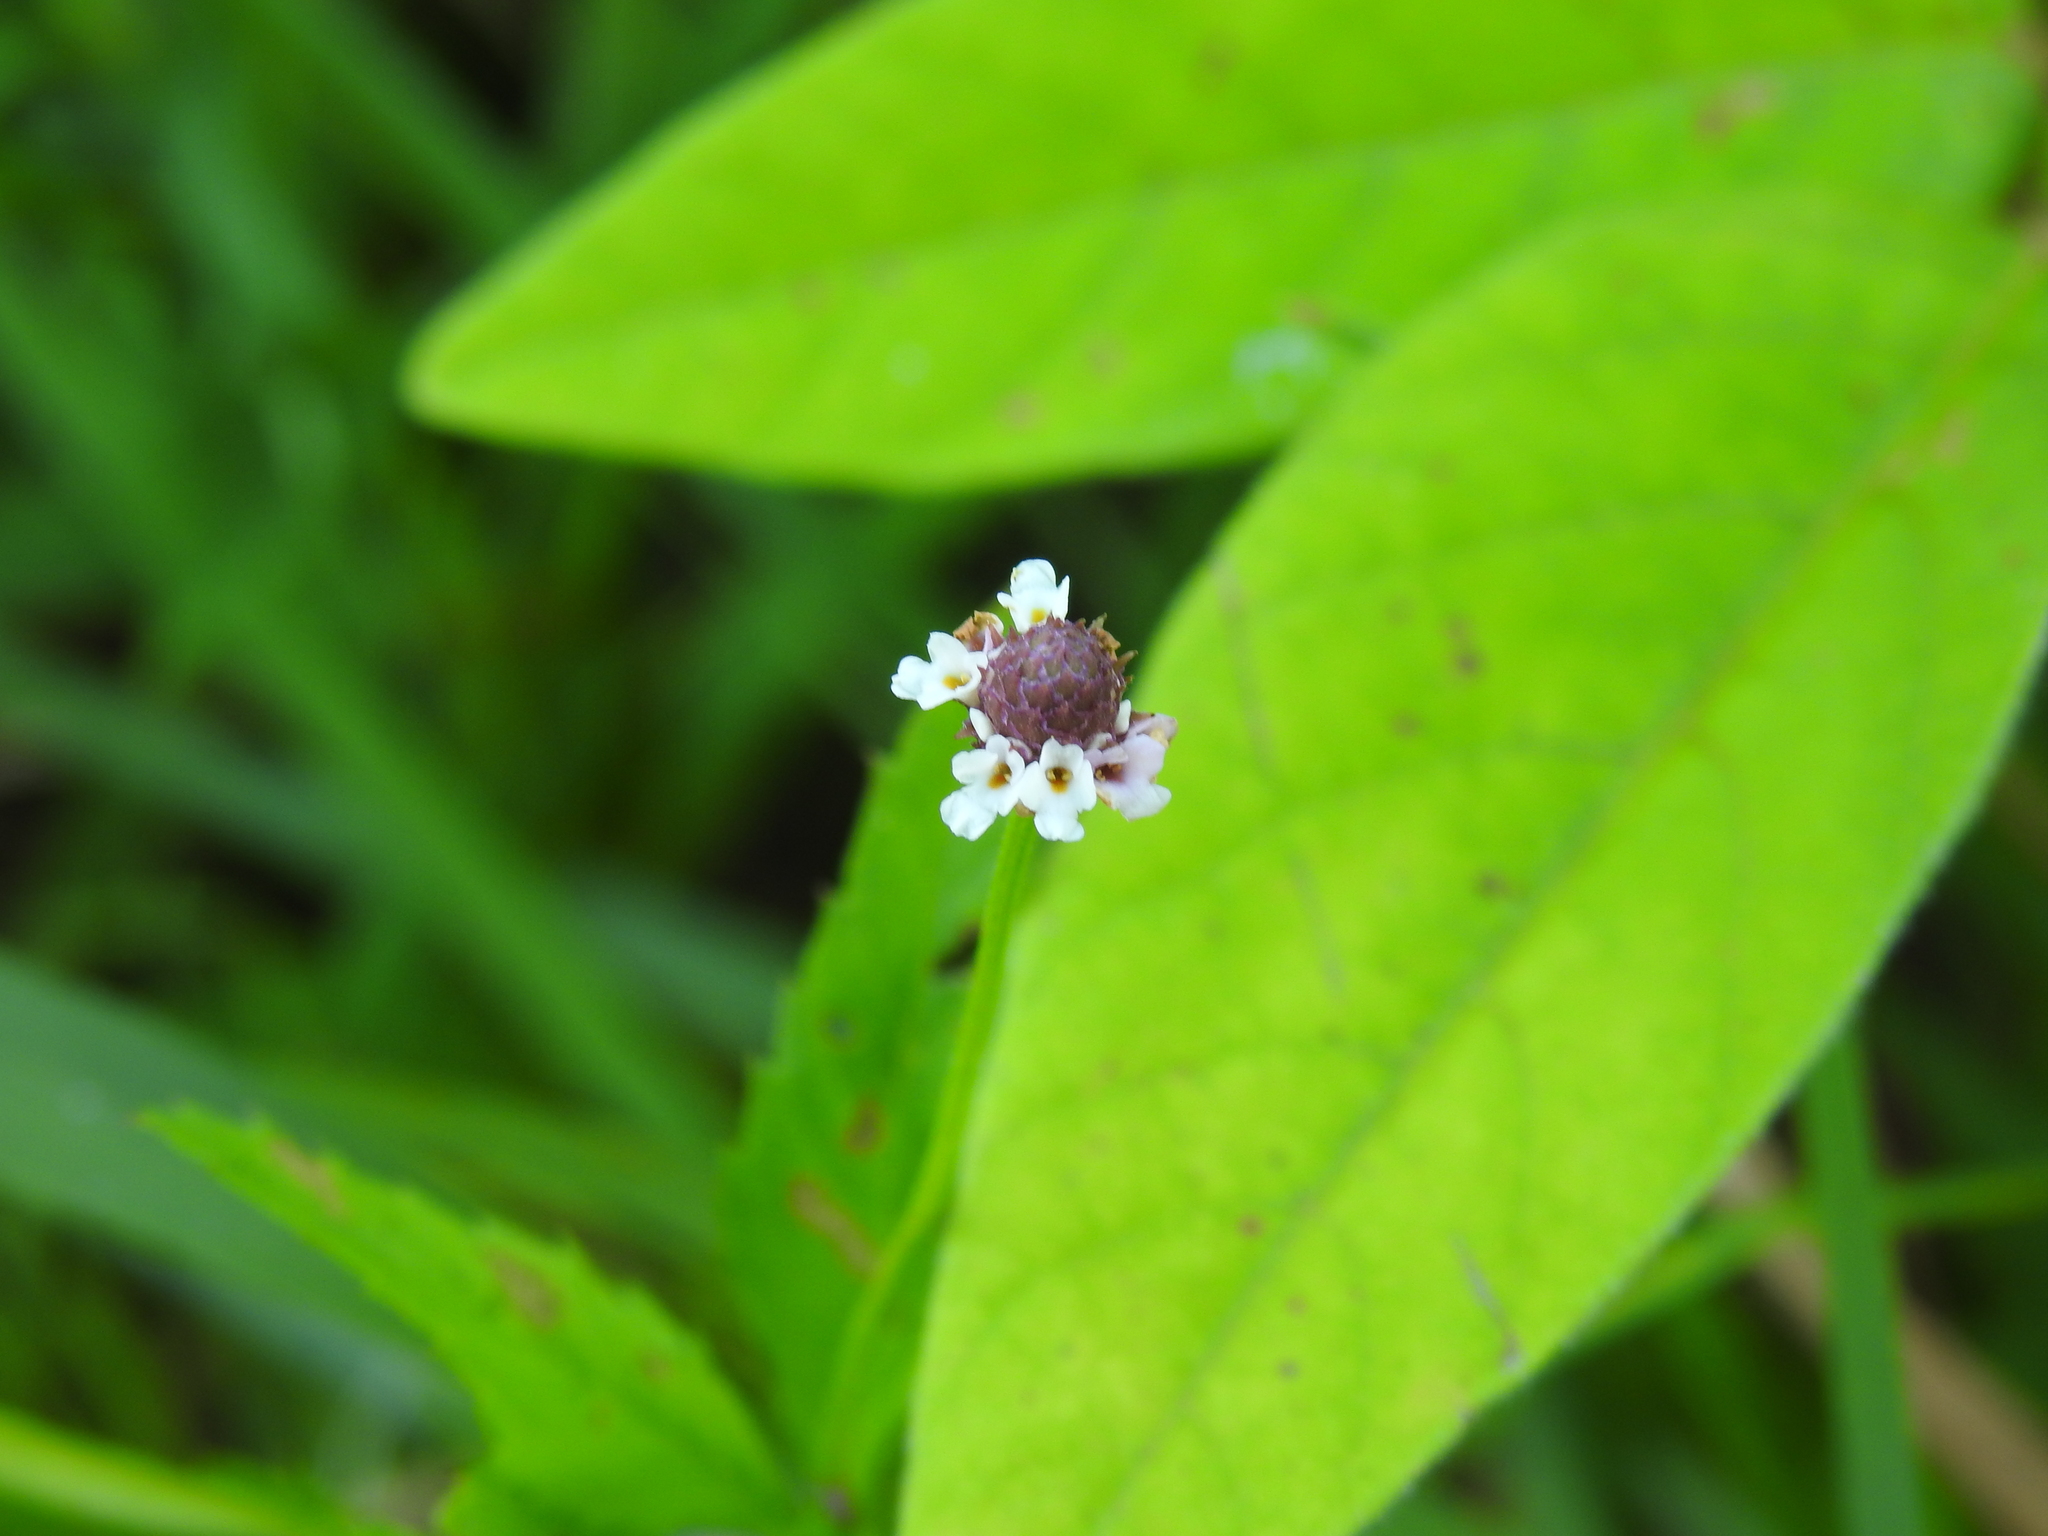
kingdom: Plantae
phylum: Tracheophyta
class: Magnoliopsida
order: Lamiales
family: Verbenaceae
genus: Phyla
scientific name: Phyla lanceolata
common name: Northern fogfruit
